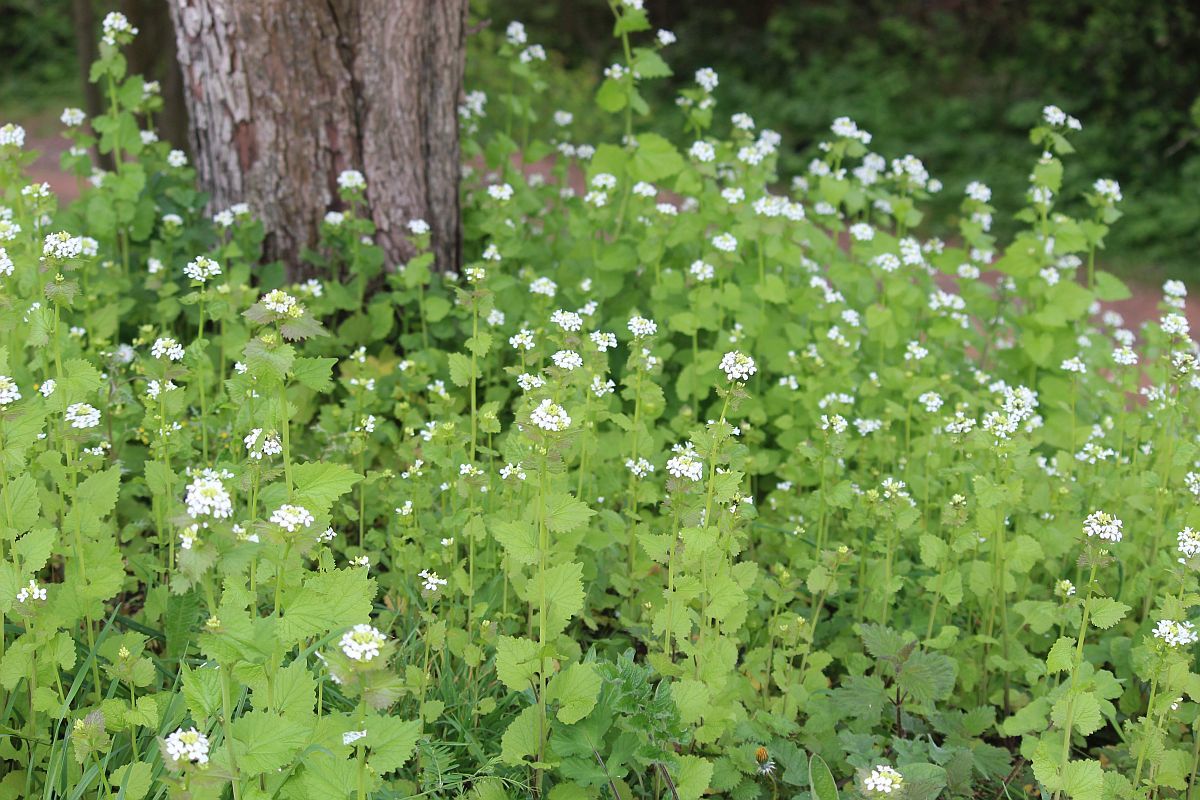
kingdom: Plantae
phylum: Tracheophyta
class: Magnoliopsida
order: Brassicales
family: Brassicaceae
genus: Alliaria
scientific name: Alliaria petiolata
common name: Garlic mustard
